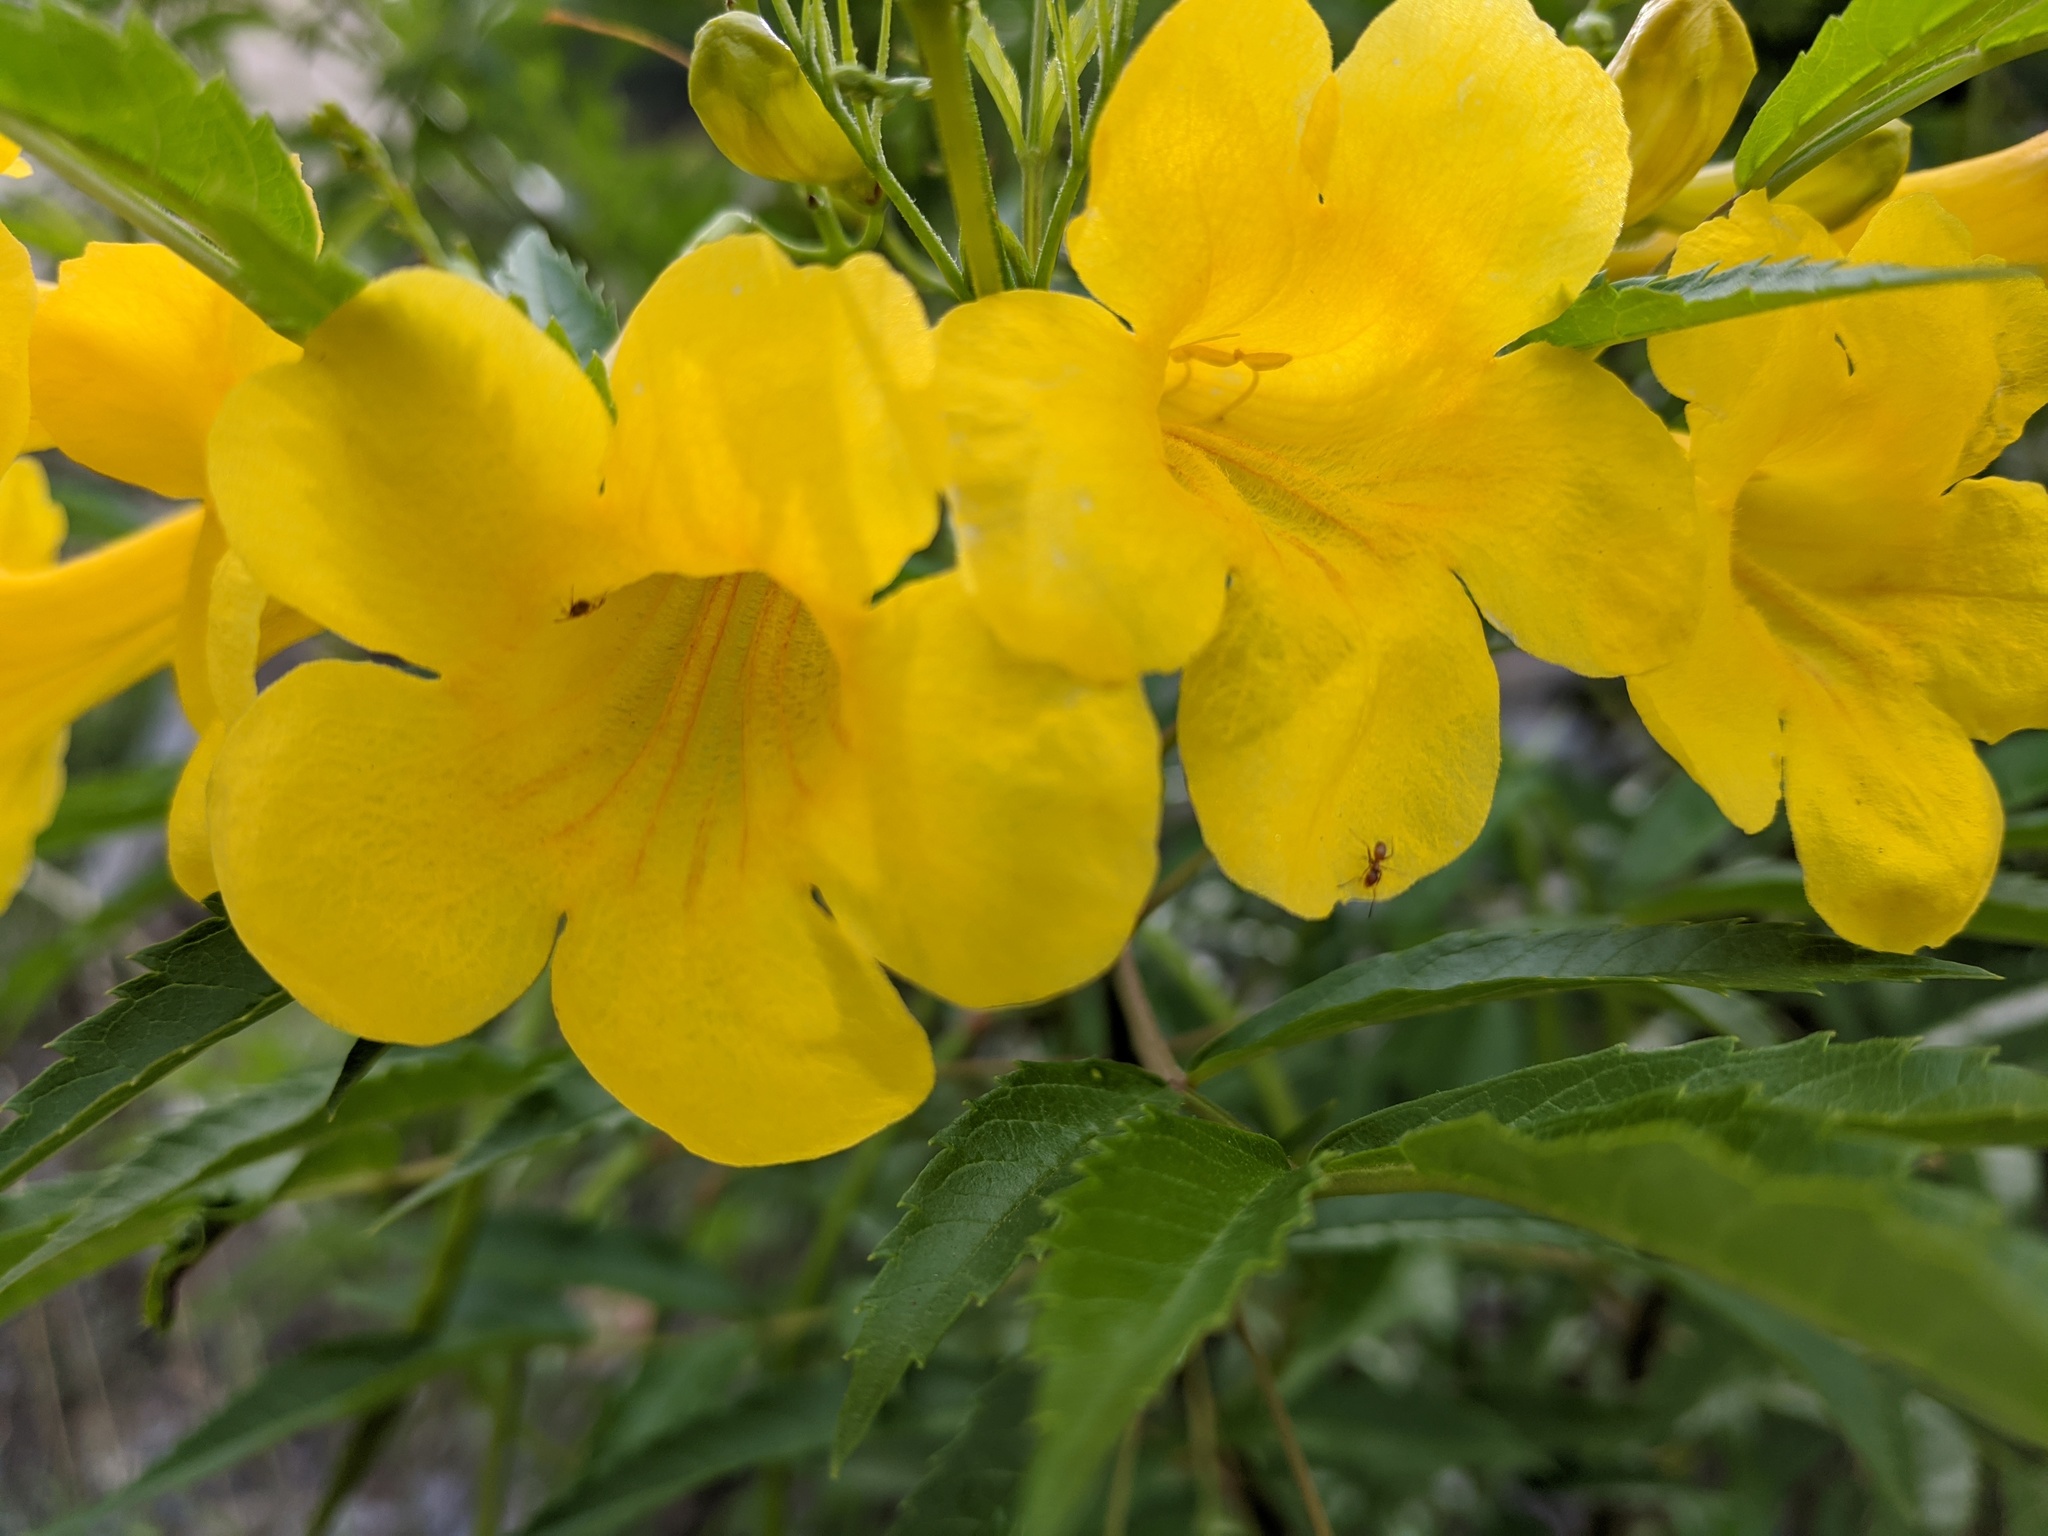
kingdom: Plantae
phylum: Tracheophyta
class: Magnoliopsida
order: Lamiales
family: Bignoniaceae
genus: Tecoma
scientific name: Tecoma stans
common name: Yellow trumpetbush
